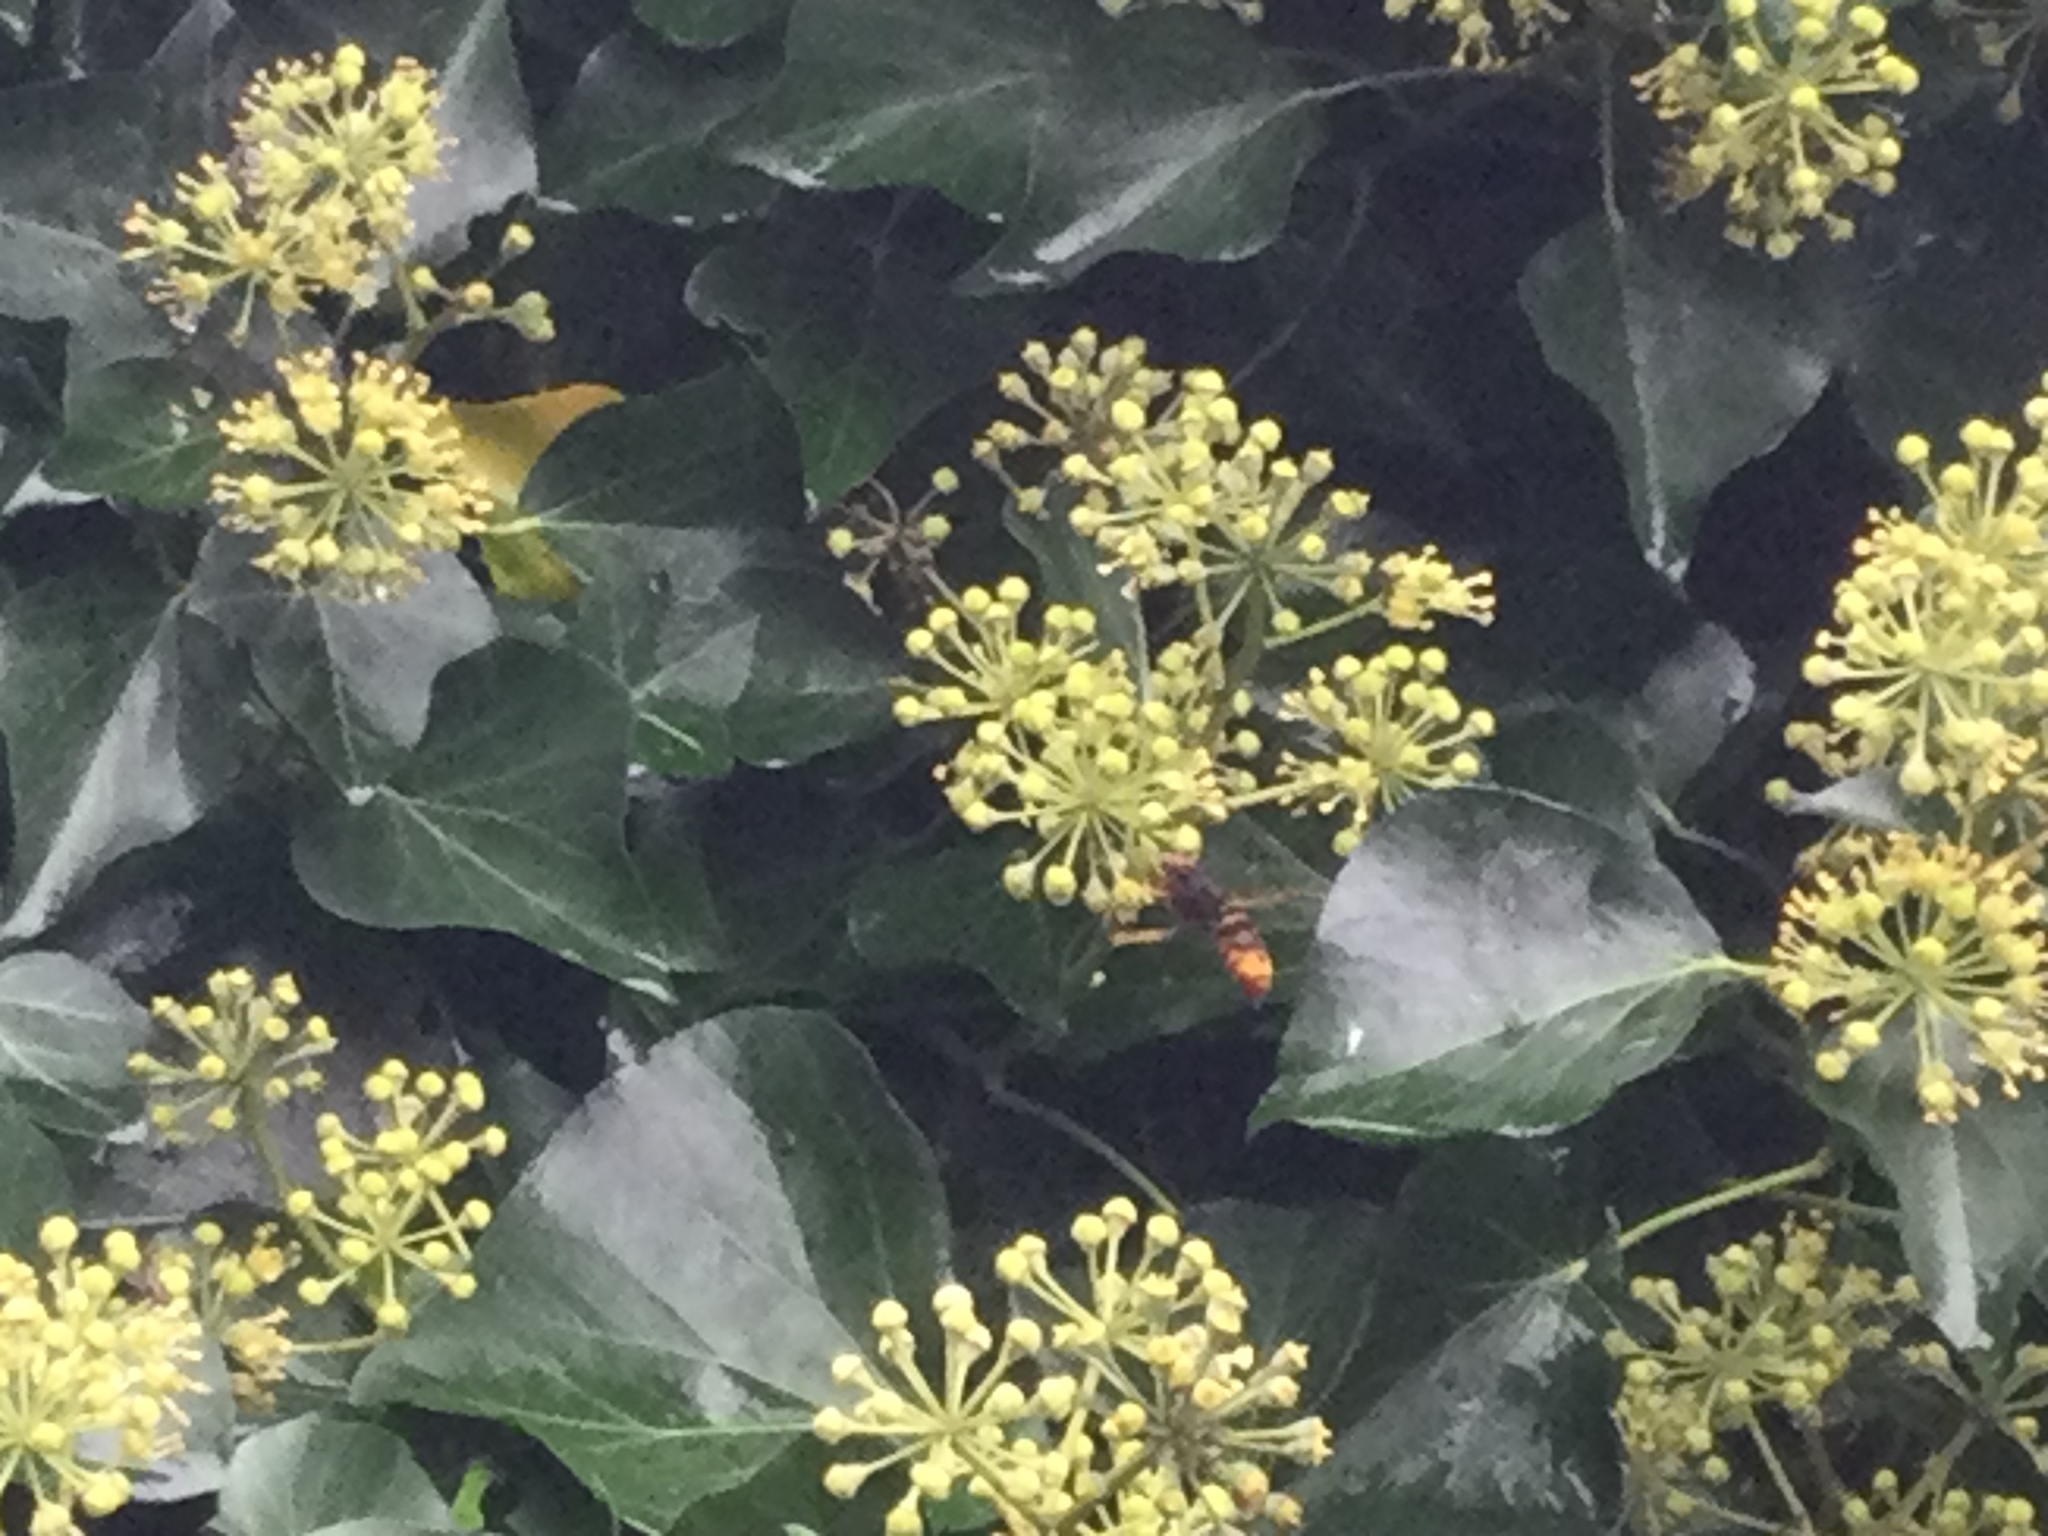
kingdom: Animalia
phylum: Arthropoda
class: Insecta
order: Hymenoptera
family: Vespidae
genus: Vespa
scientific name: Vespa velutina
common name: Asian hornet
